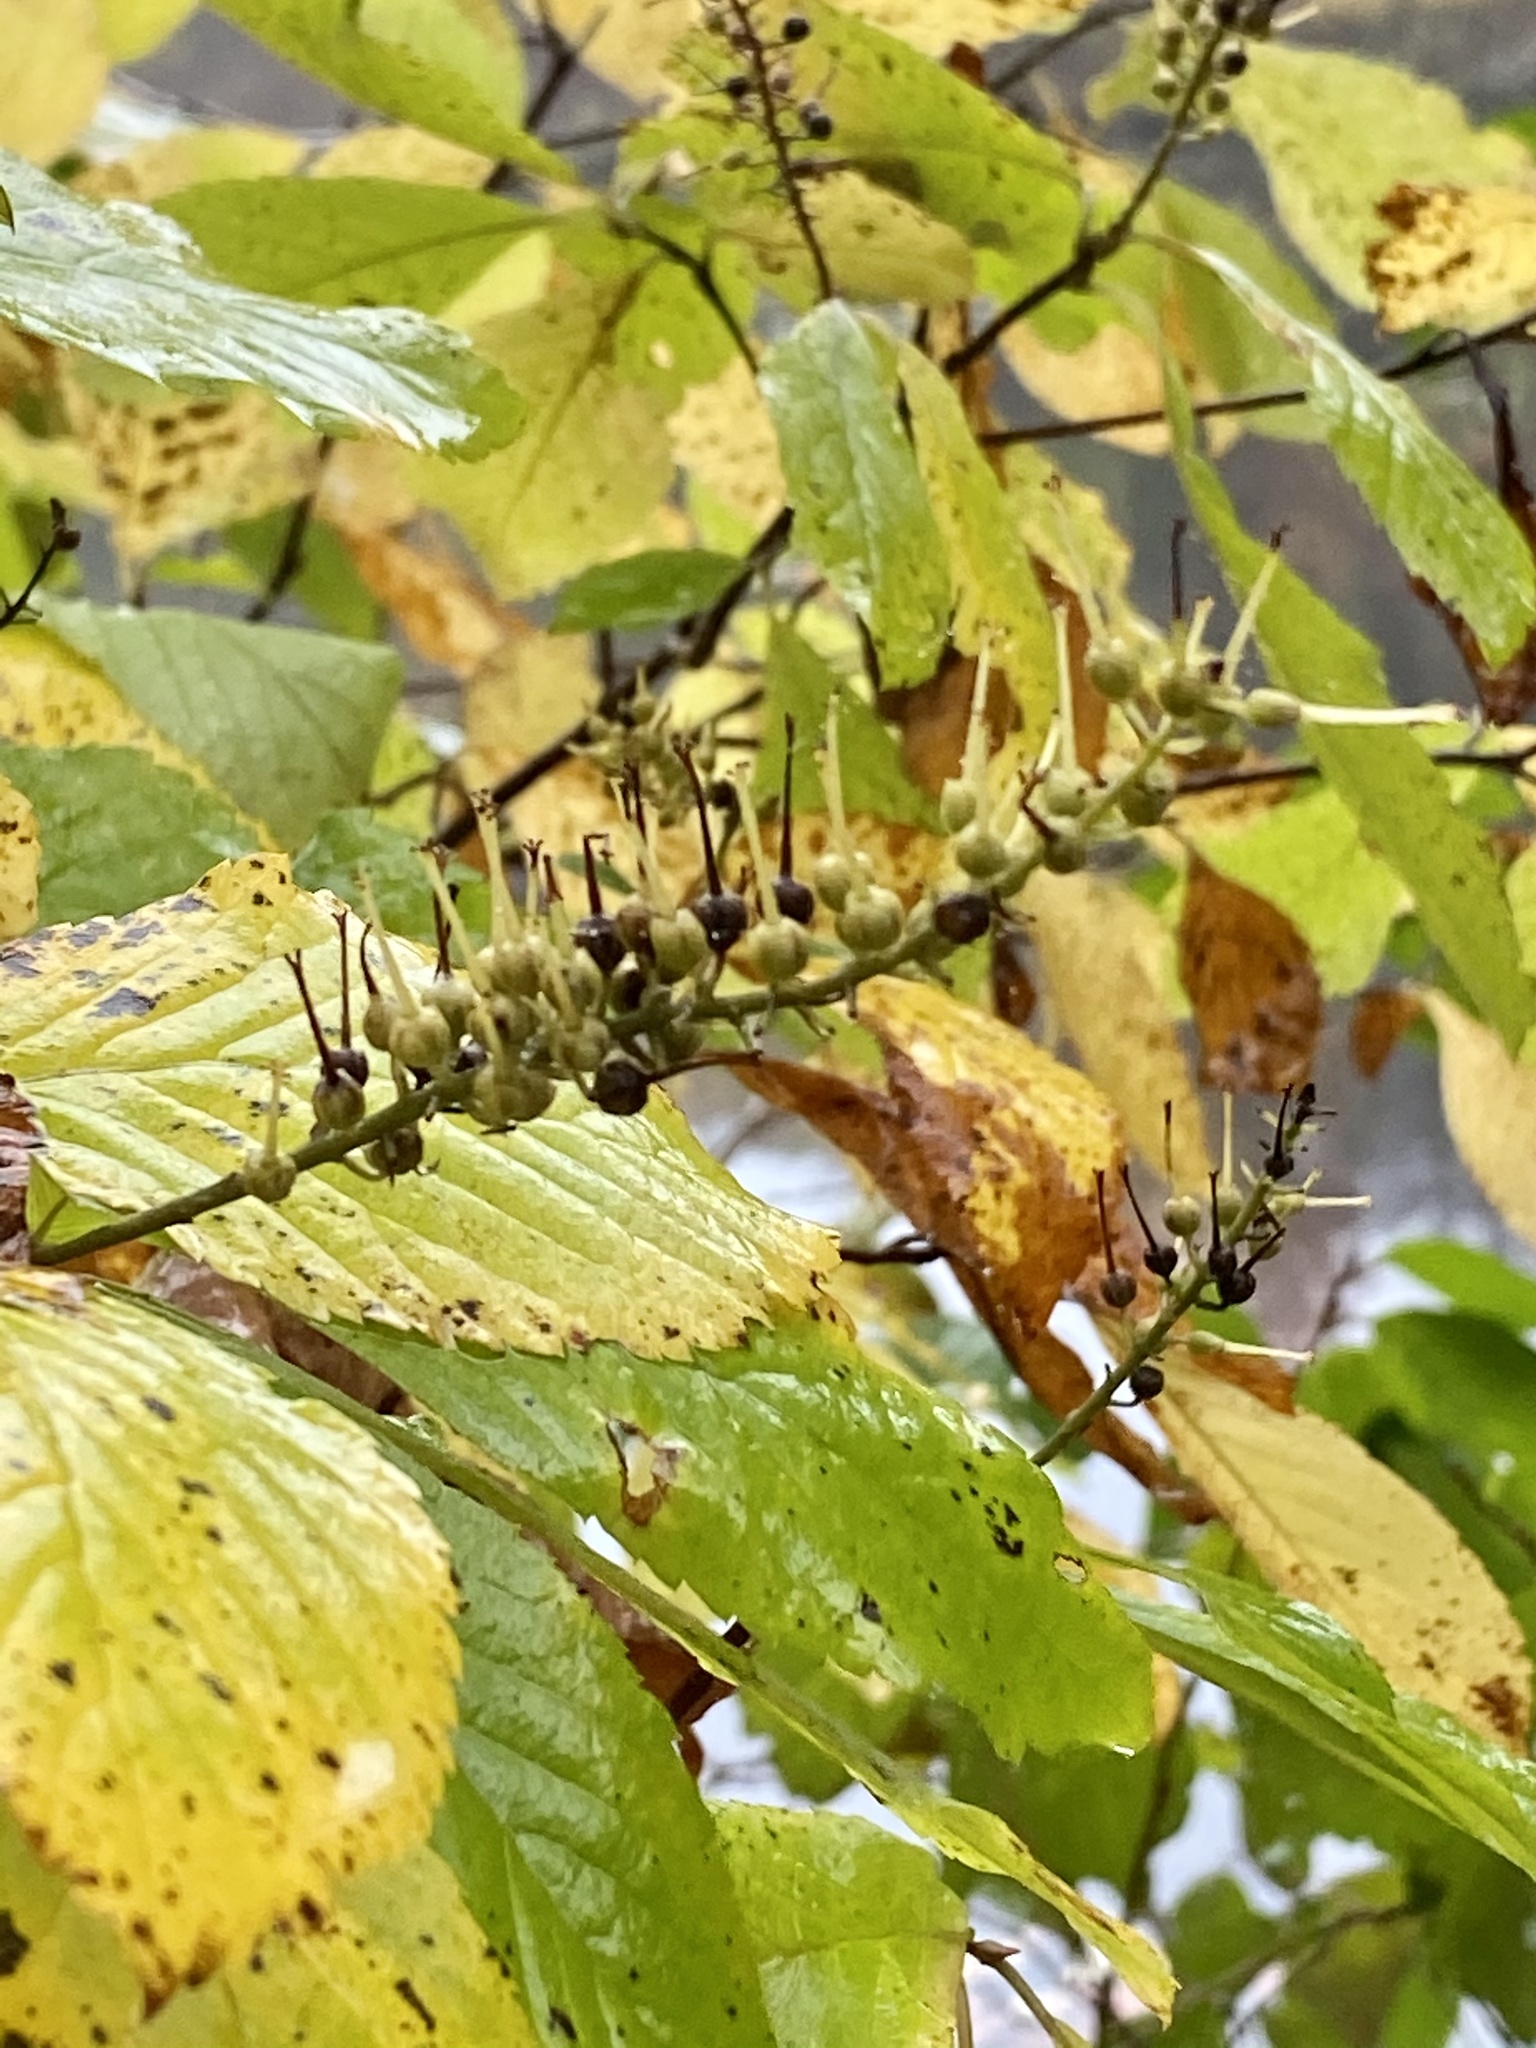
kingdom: Plantae
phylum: Tracheophyta
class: Magnoliopsida
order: Ericales
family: Clethraceae
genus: Clethra
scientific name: Clethra alnifolia
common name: Sweet pepperbush
